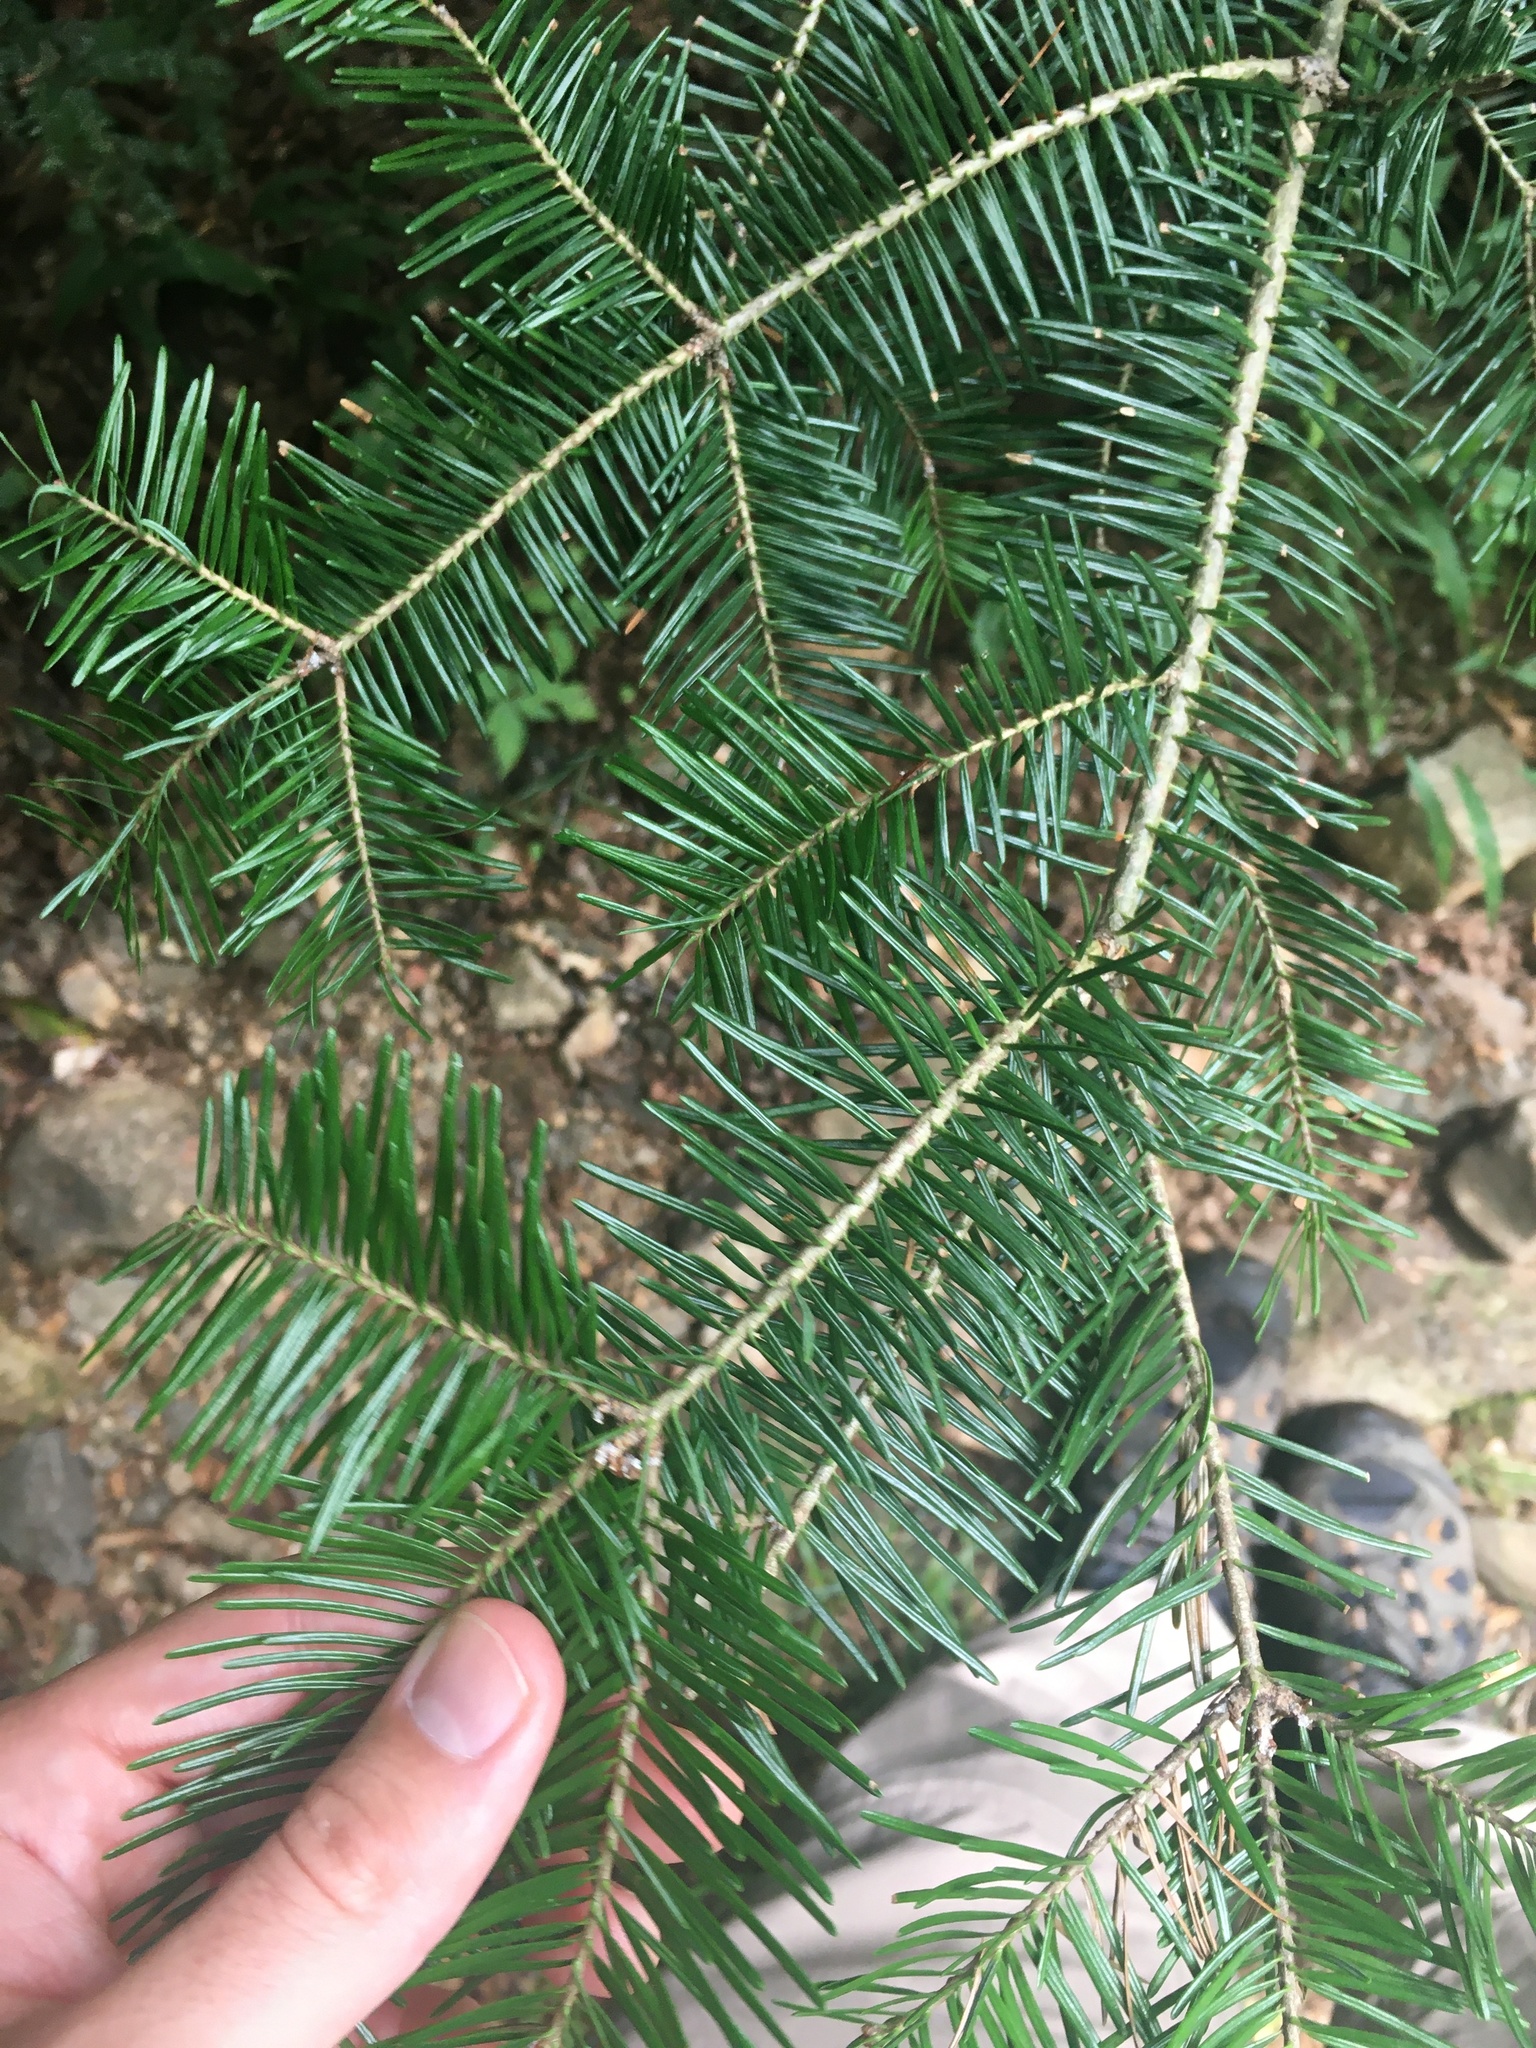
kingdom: Plantae
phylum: Tracheophyta
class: Pinopsida
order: Pinales
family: Pinaceae
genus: Abies
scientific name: Abies balsamea
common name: Balsam fir
